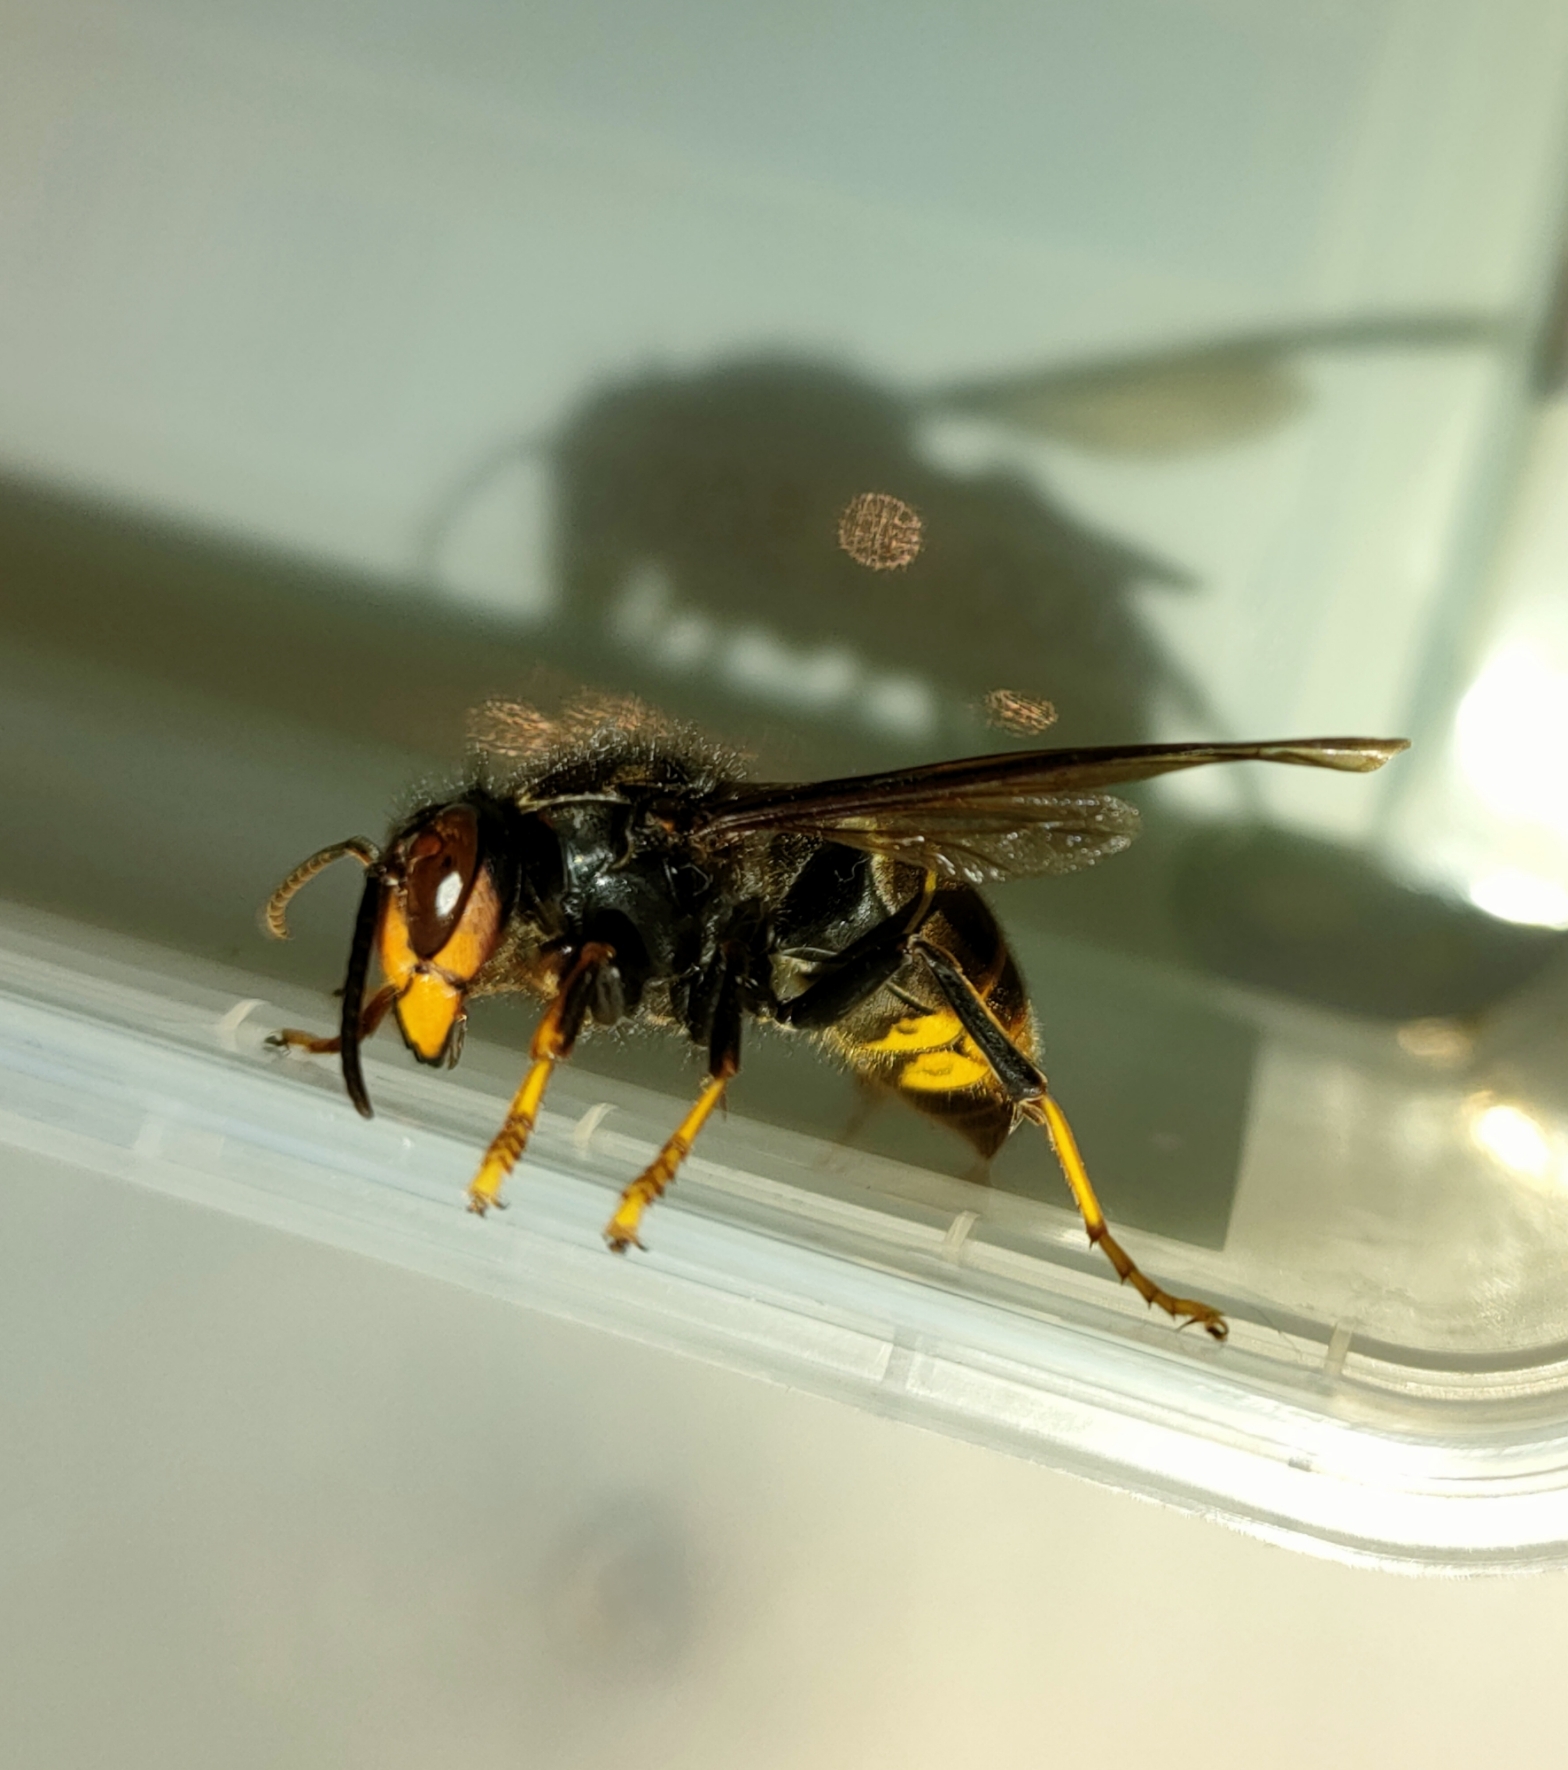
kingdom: Animalia
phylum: Arthropoda
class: Insecta
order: Hymenoptera
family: Vespidae
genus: Vespa
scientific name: Vespa velutina
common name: Asian hornet
